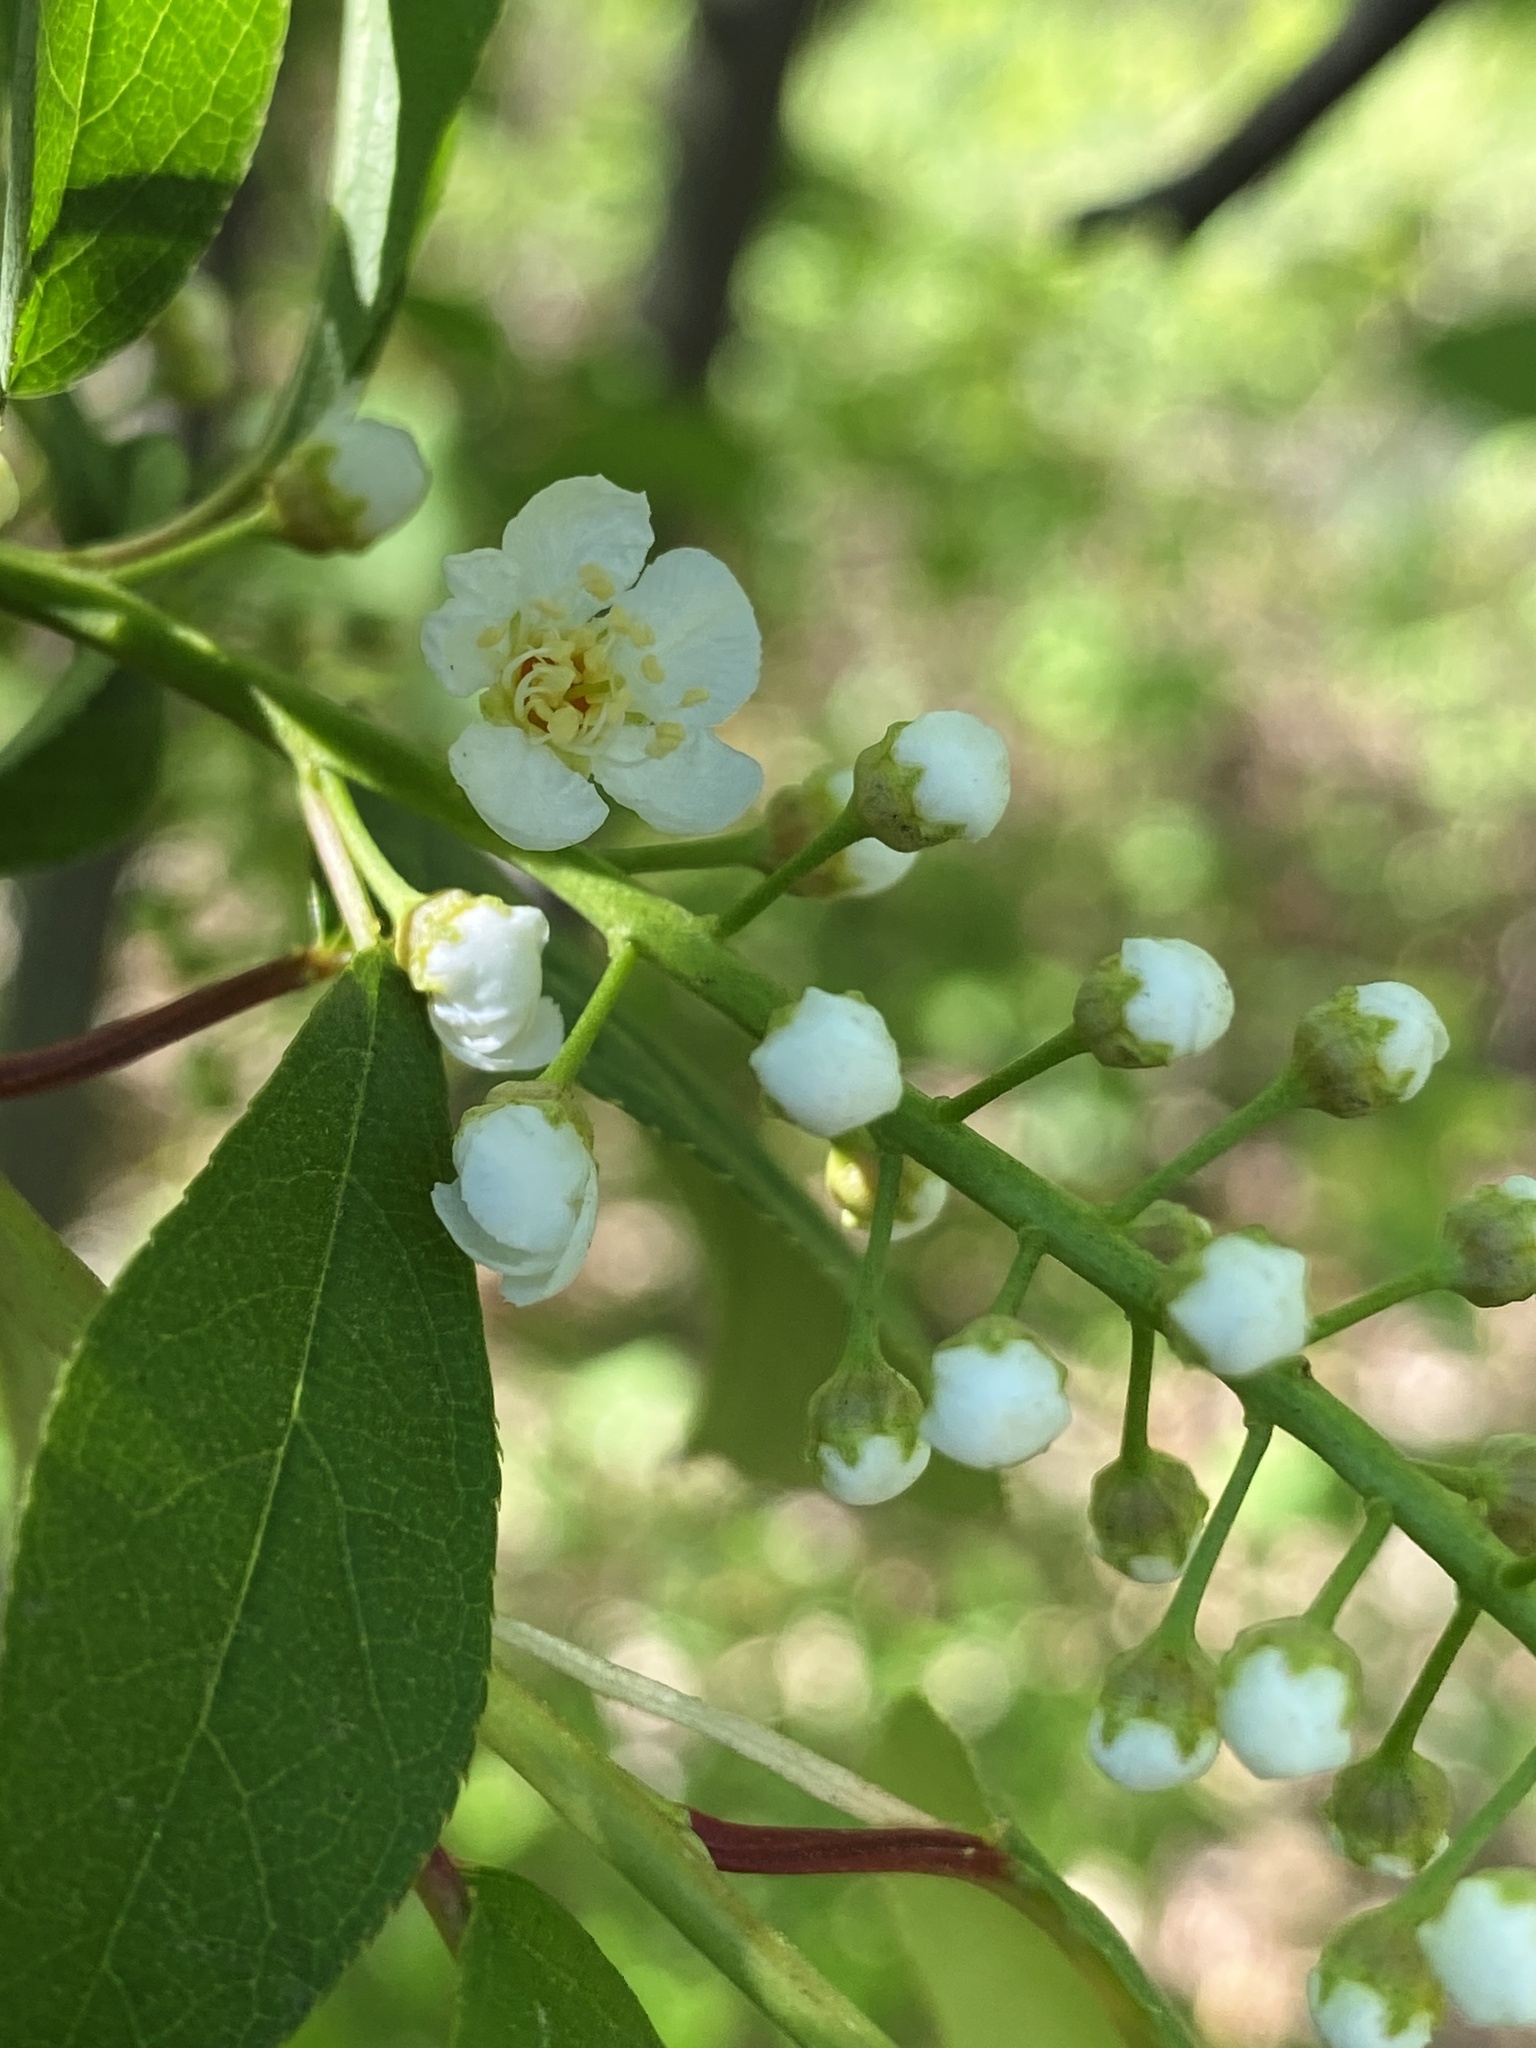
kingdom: Plantae
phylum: Tracheophyta
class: Magnoliopsida
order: Rosales
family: Rosaceae
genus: Prunus
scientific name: Prunus serotina
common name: Black cherry
